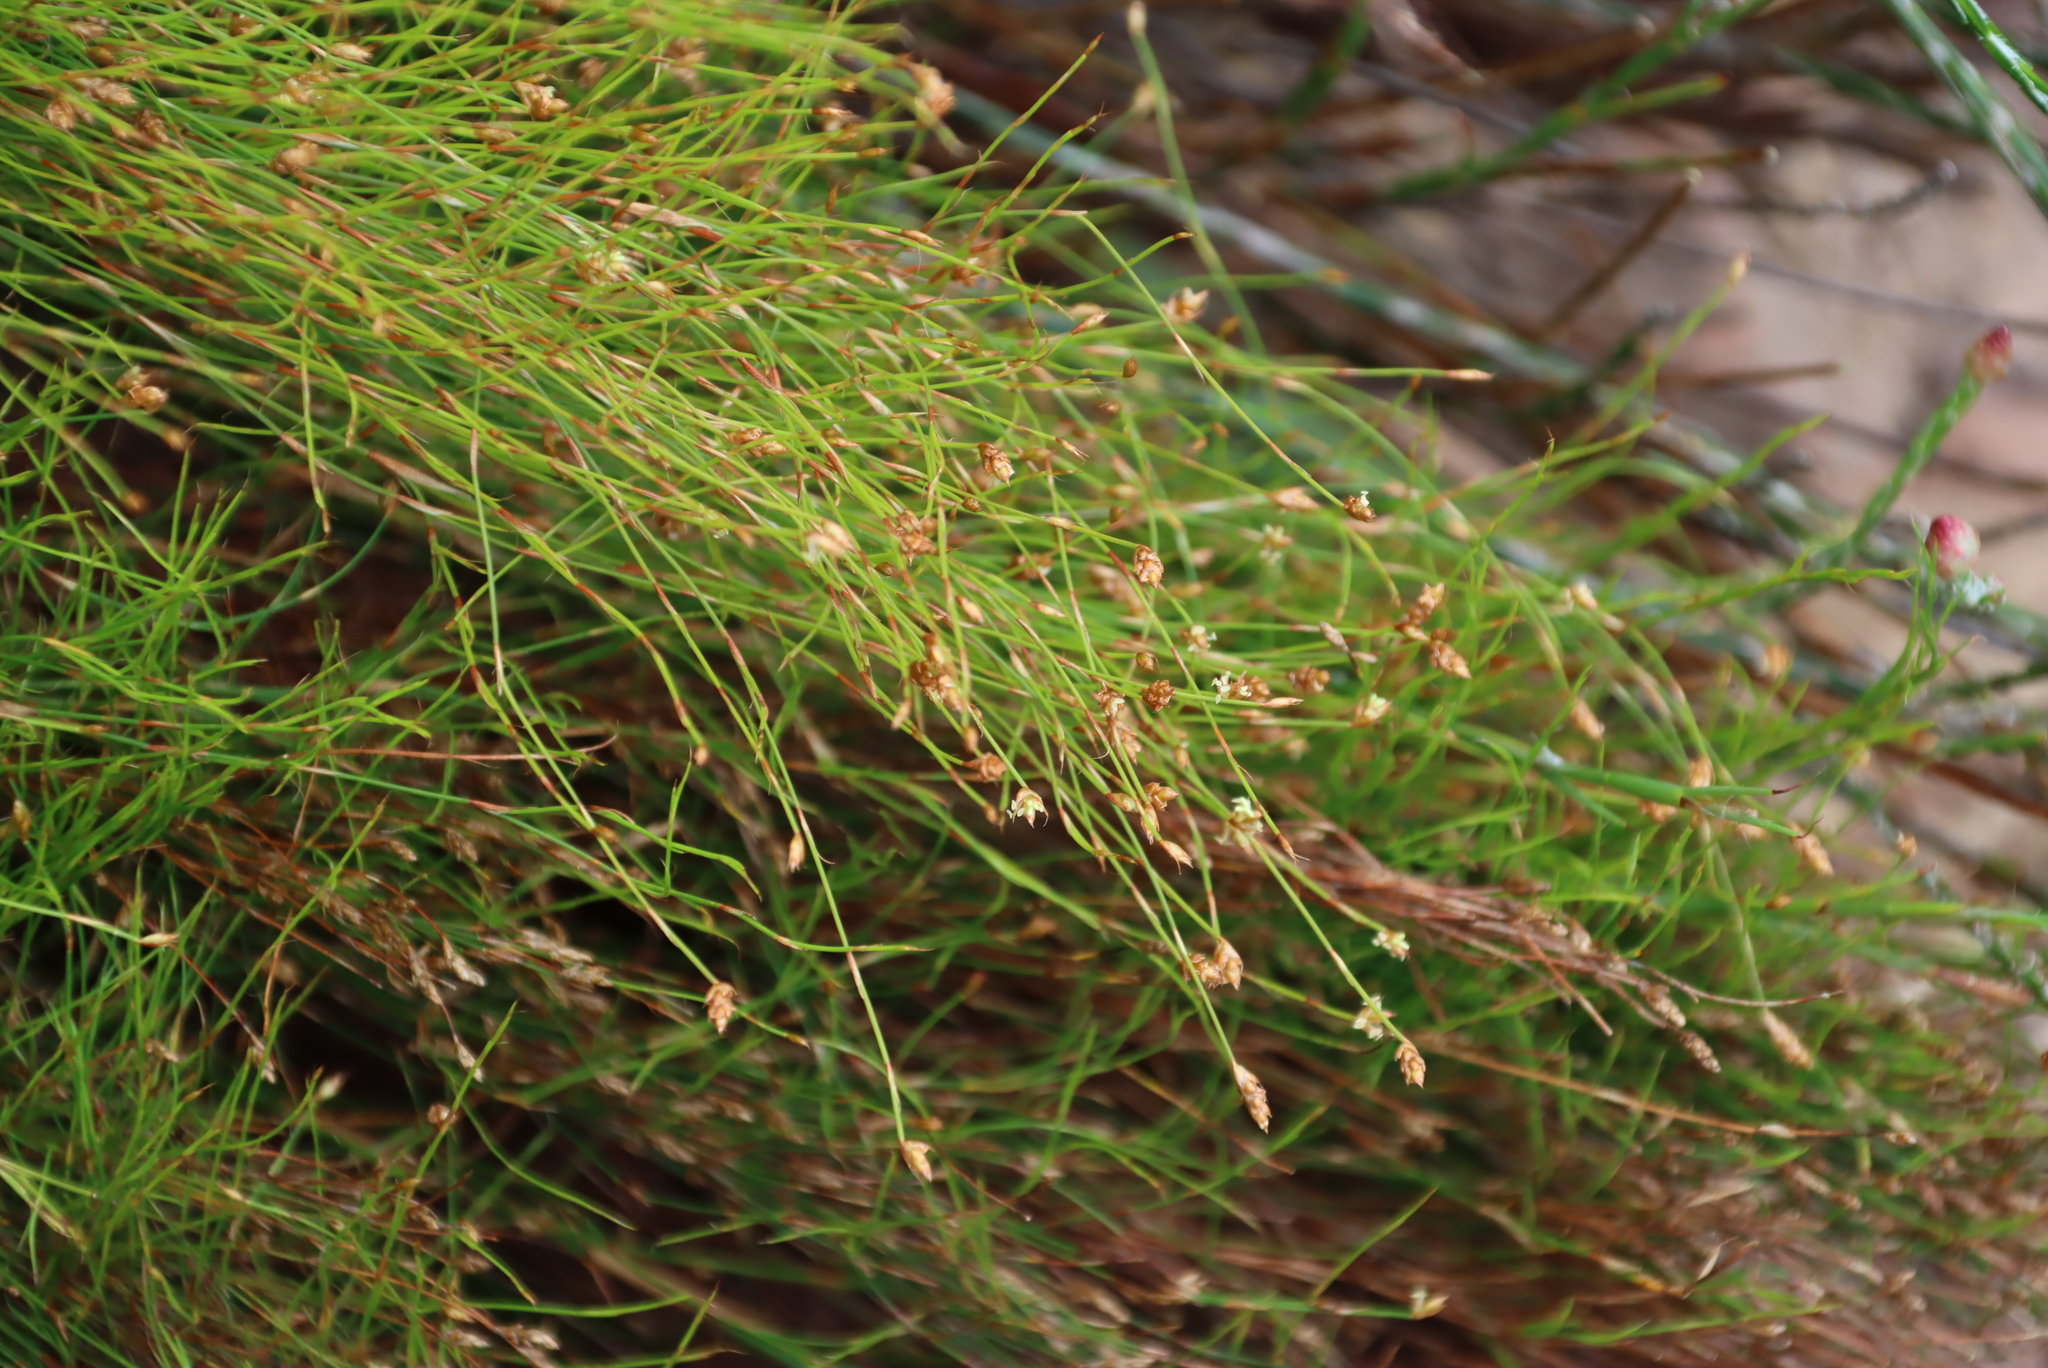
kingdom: Plantae
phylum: Tracheophyta
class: Liliopsida
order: Poales
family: Restionaceae
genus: Restio
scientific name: Restio ramosissimus
